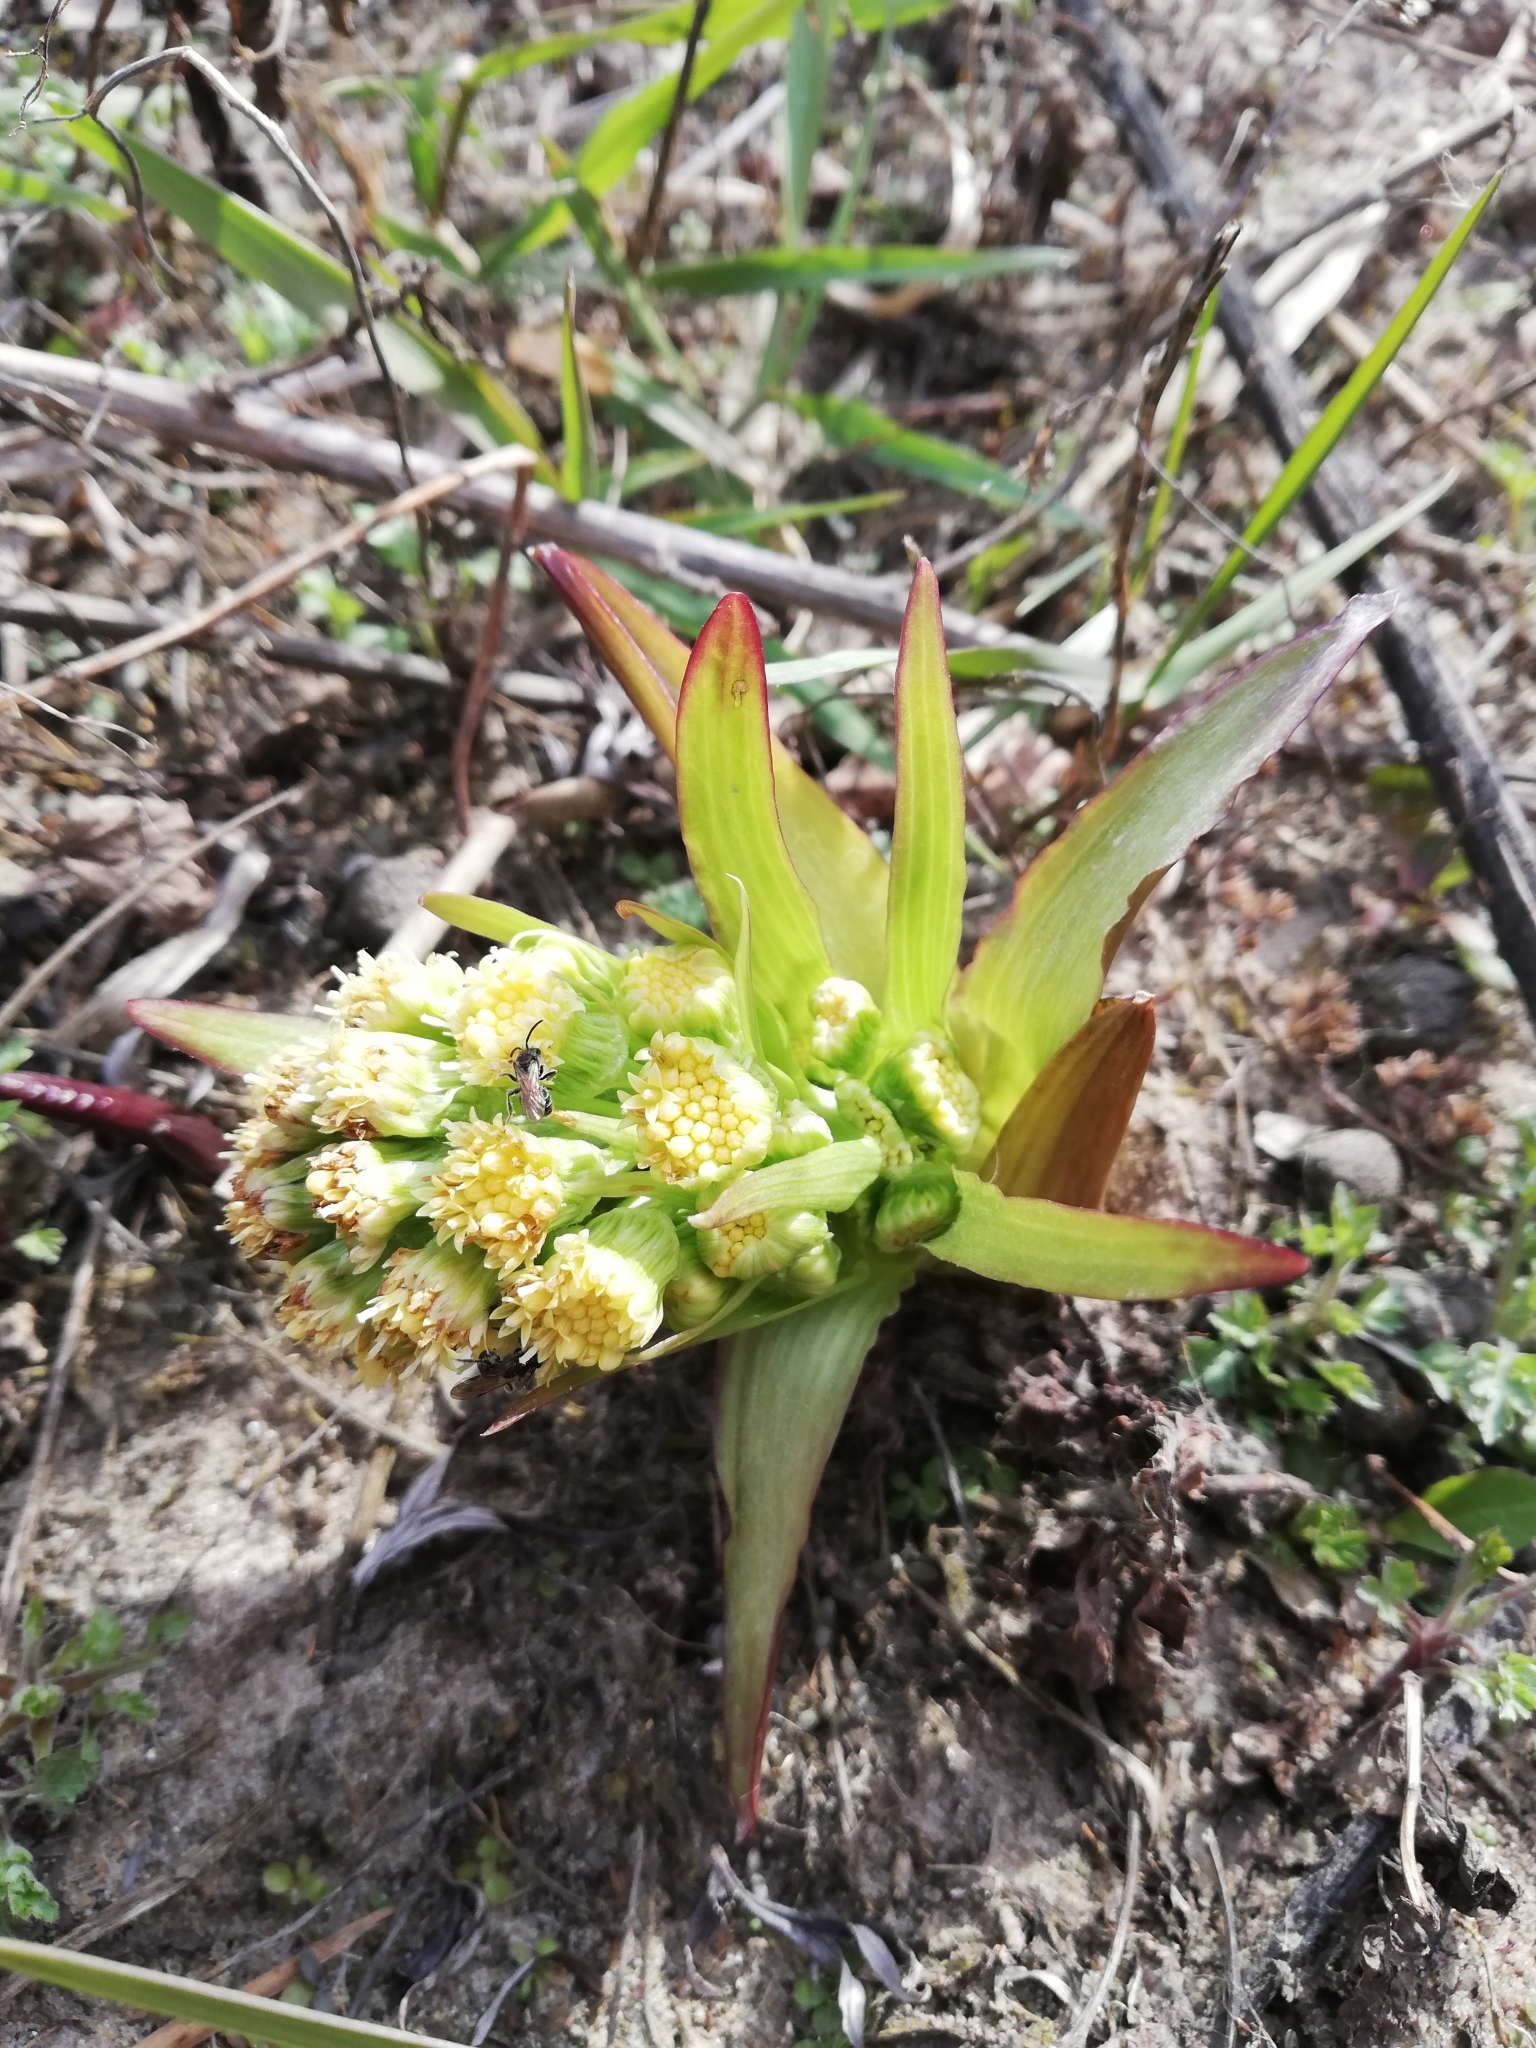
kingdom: Plantae
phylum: Tracheophyta
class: Magnoliopsida
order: Asterales
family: Asteraceae
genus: Petasites
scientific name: Petasites spurius
